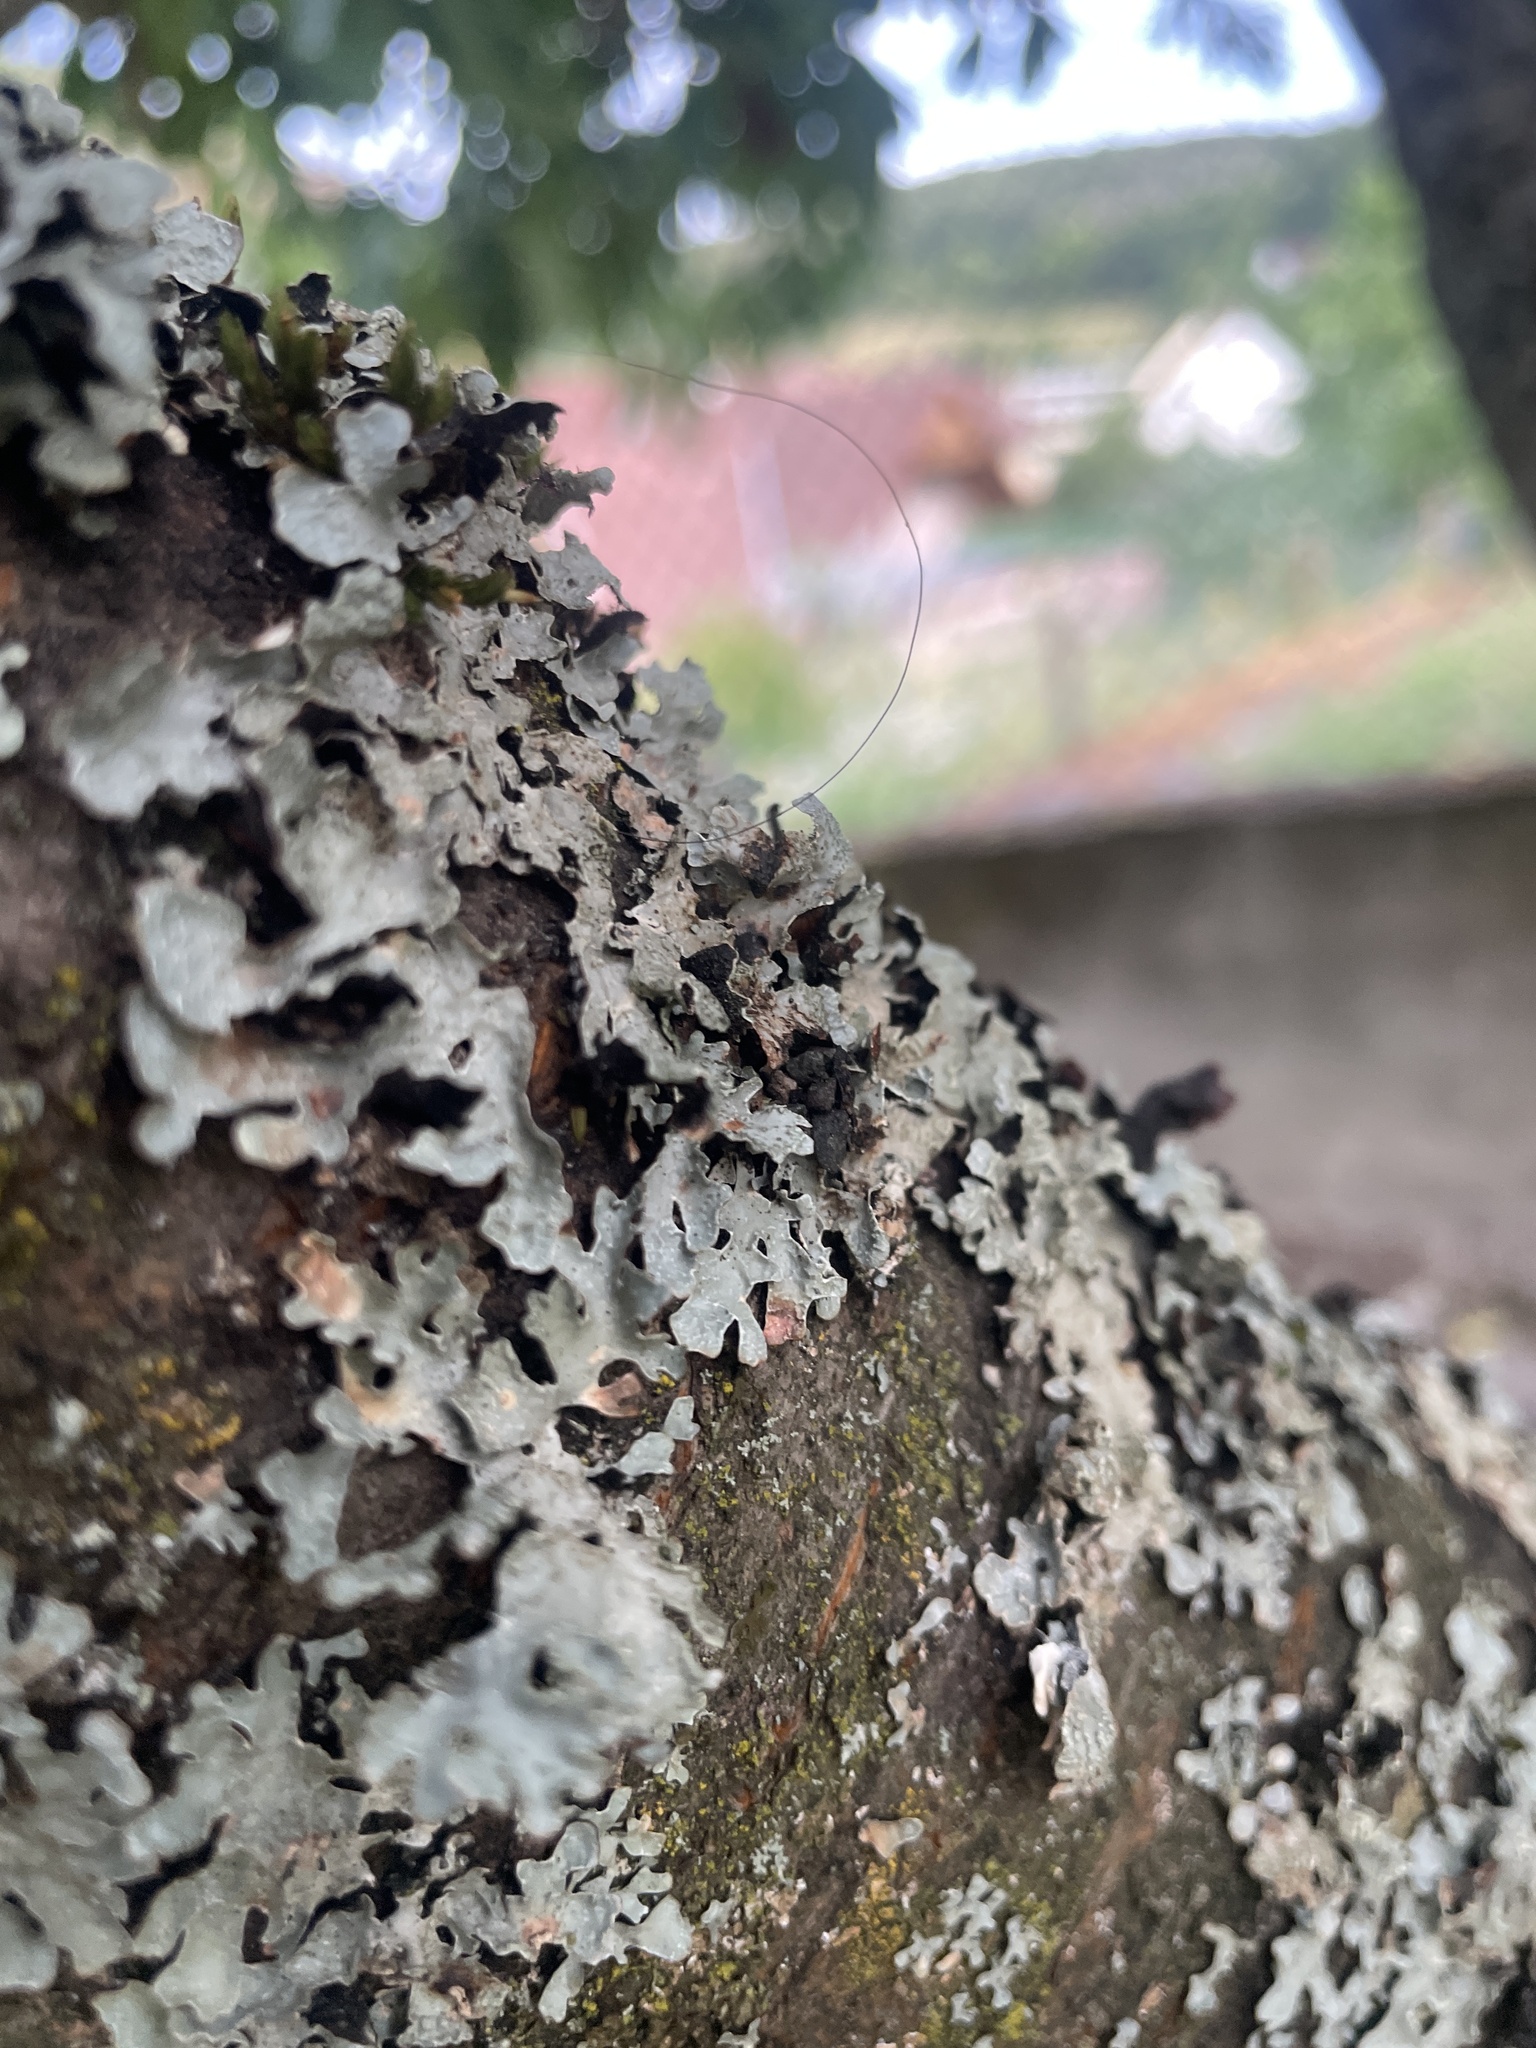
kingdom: Fungi
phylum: Ascomycota
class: Lecanoromycetes
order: Lecanorales
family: Parmeliaceae
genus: Parmelia
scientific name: Parmelia sulcata
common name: Netted shield lichen
